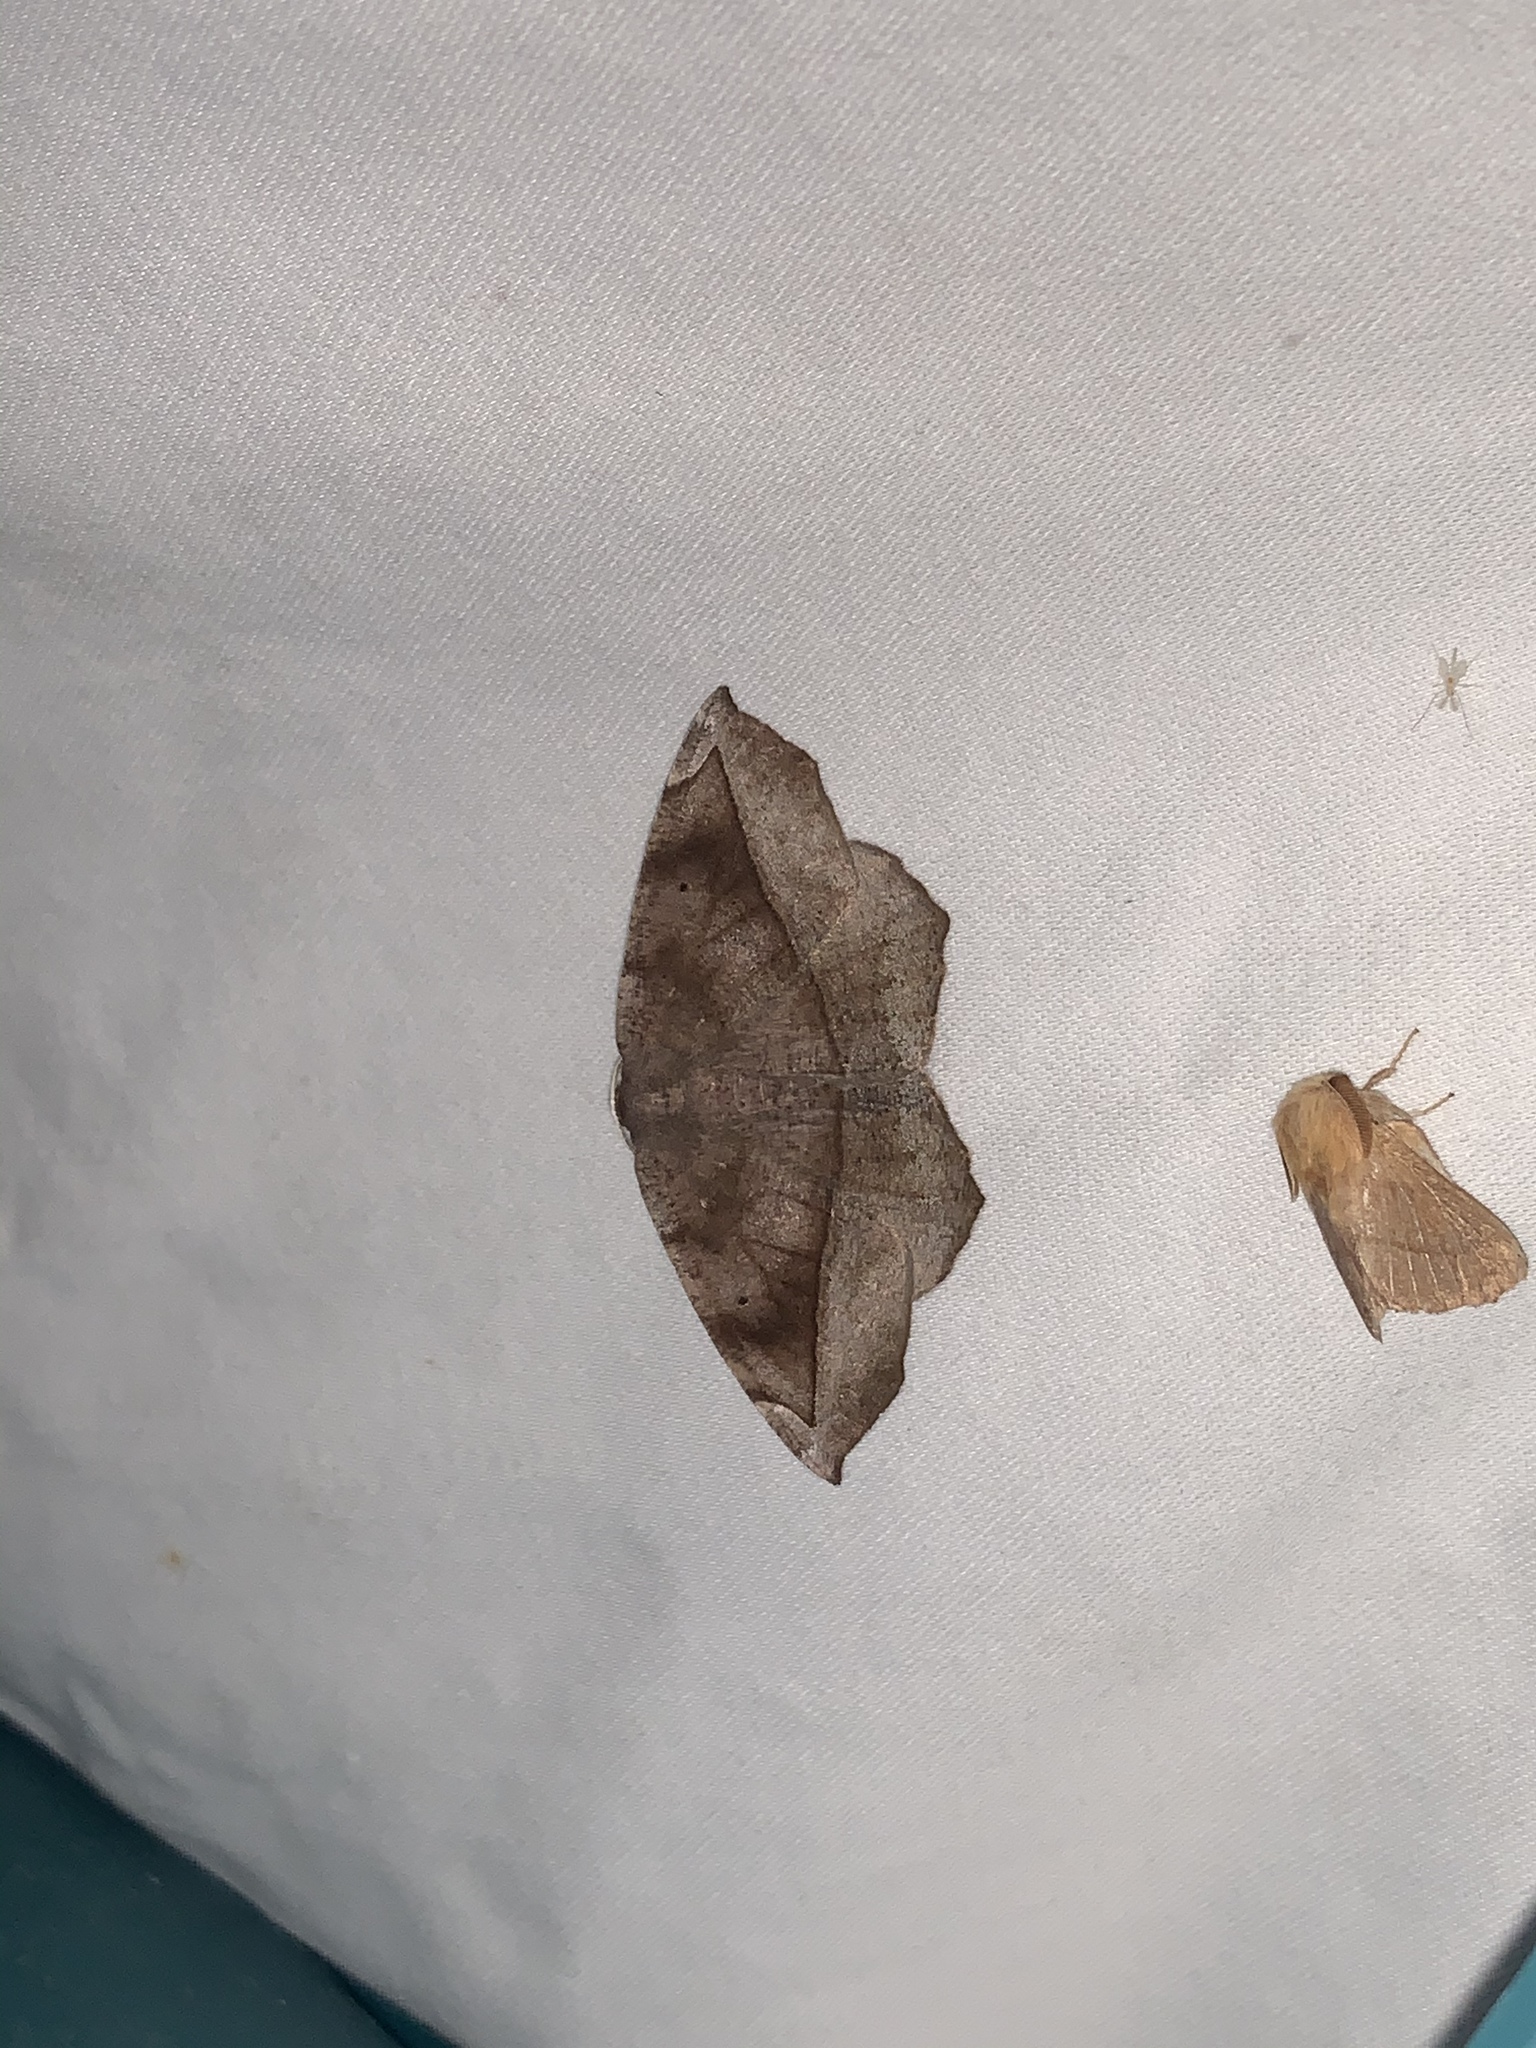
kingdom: Animalia
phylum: Arthropoda
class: Insecta
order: Lepidoptera
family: Geometridae
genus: Eutrapela
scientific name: Eutrapela clemataria
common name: Curved-toothed geometer
